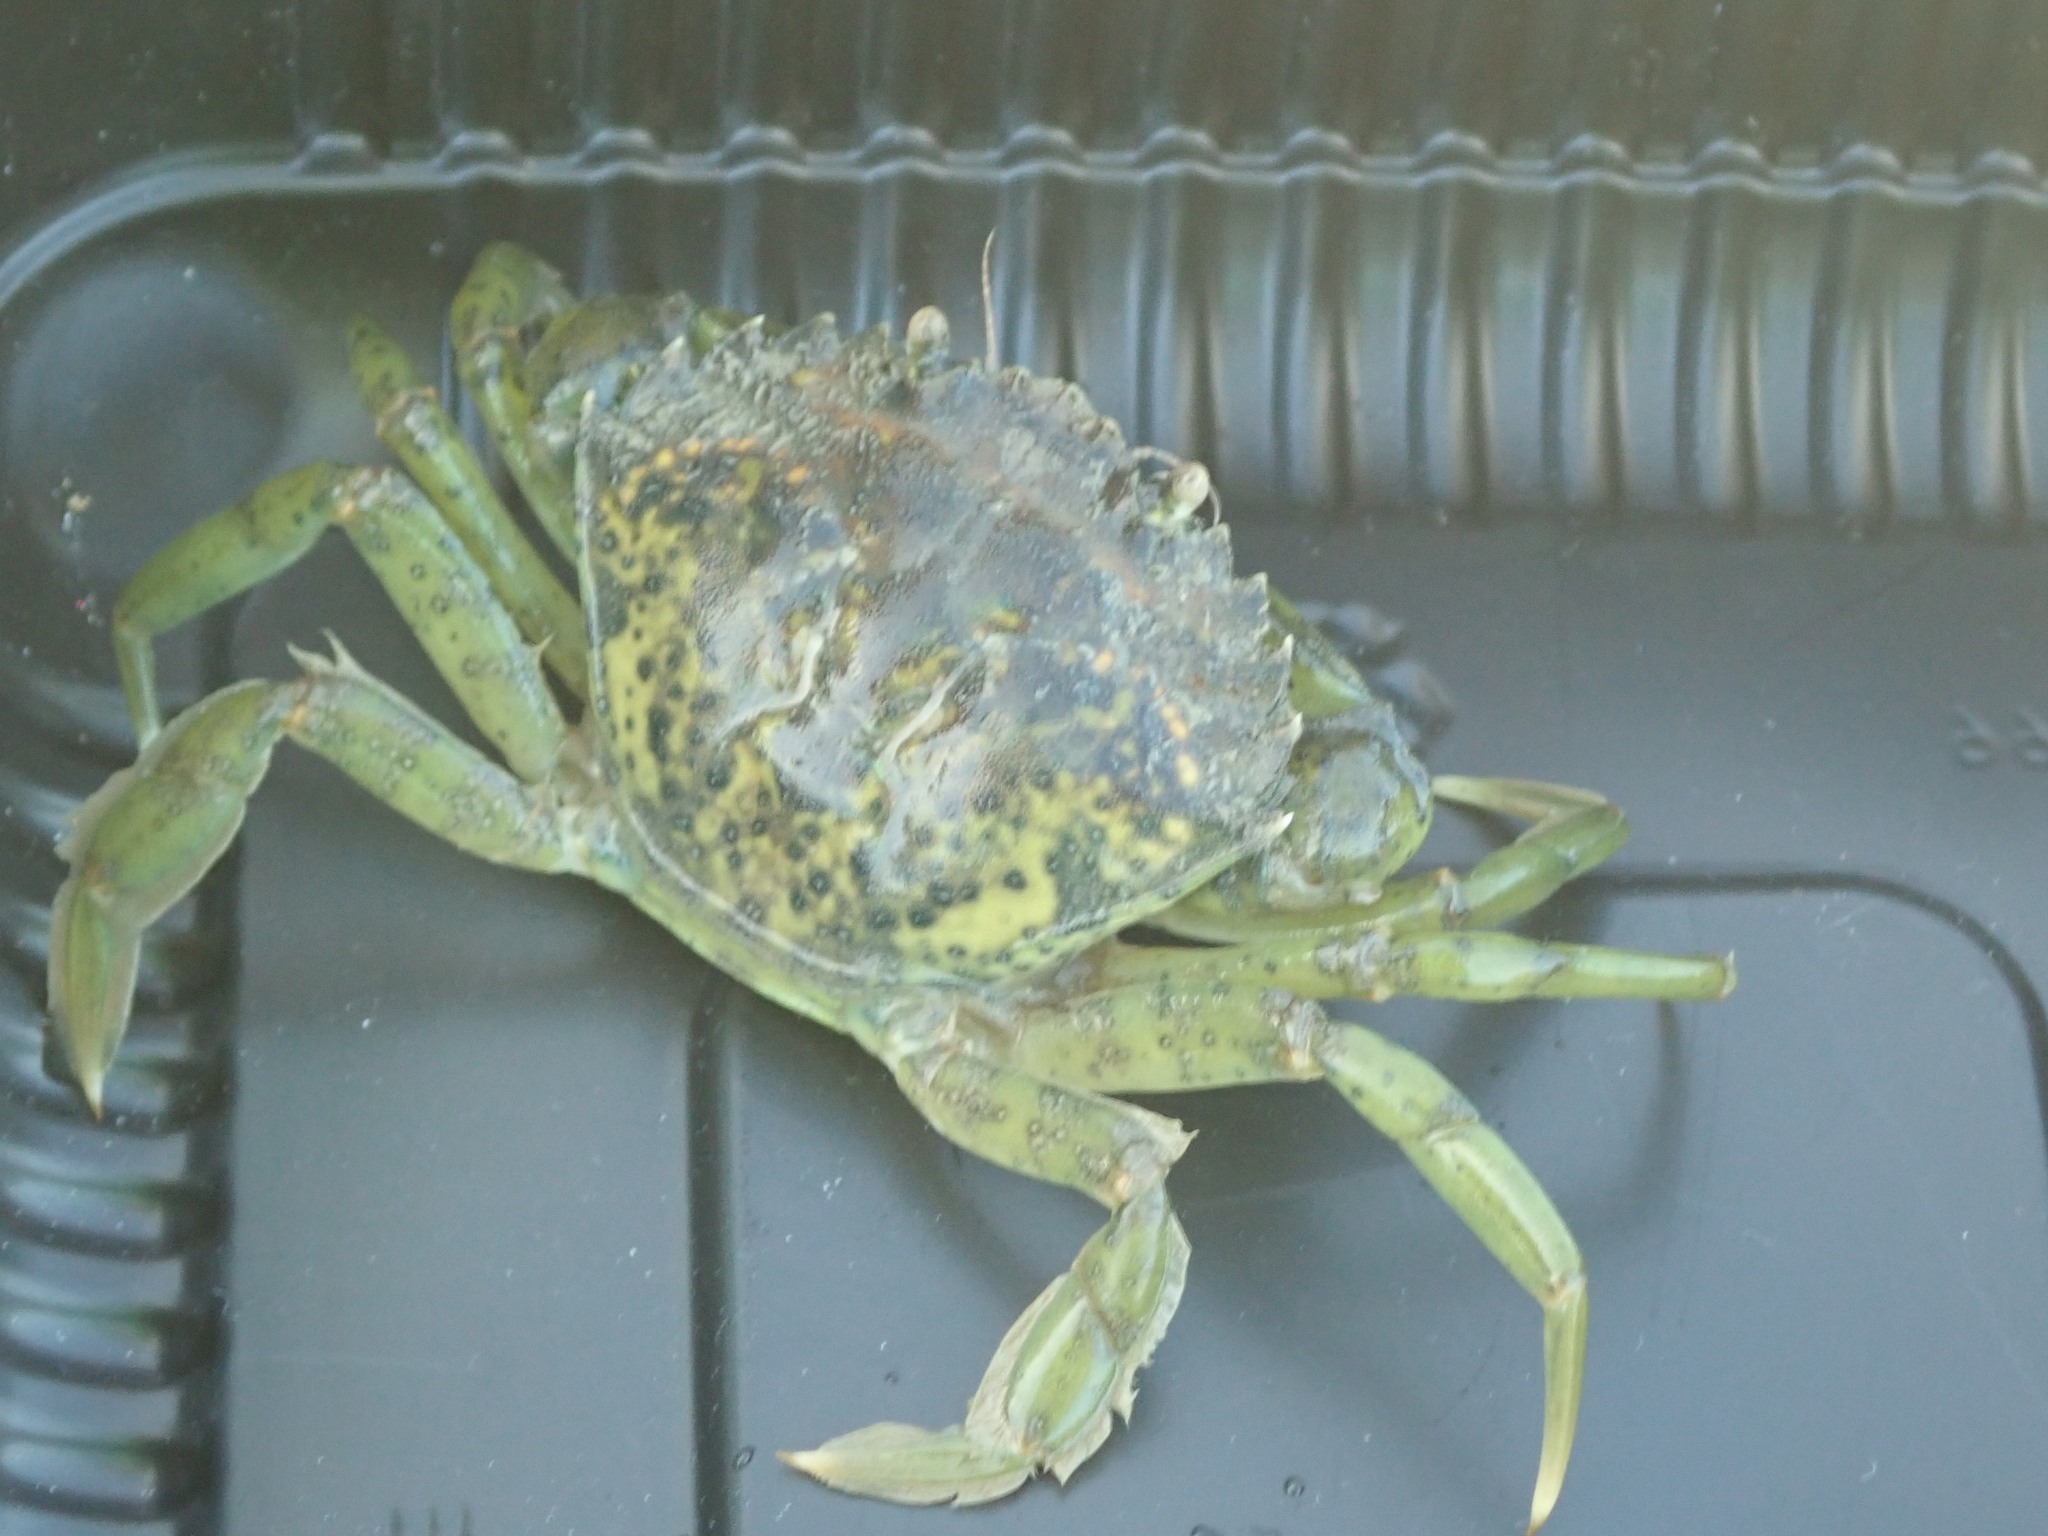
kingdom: Animalia
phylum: Arthropoda
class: Malacostraca
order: Decapoda
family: Carcinidae
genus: Carcinus
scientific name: Carcinus maenas
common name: European green crab
